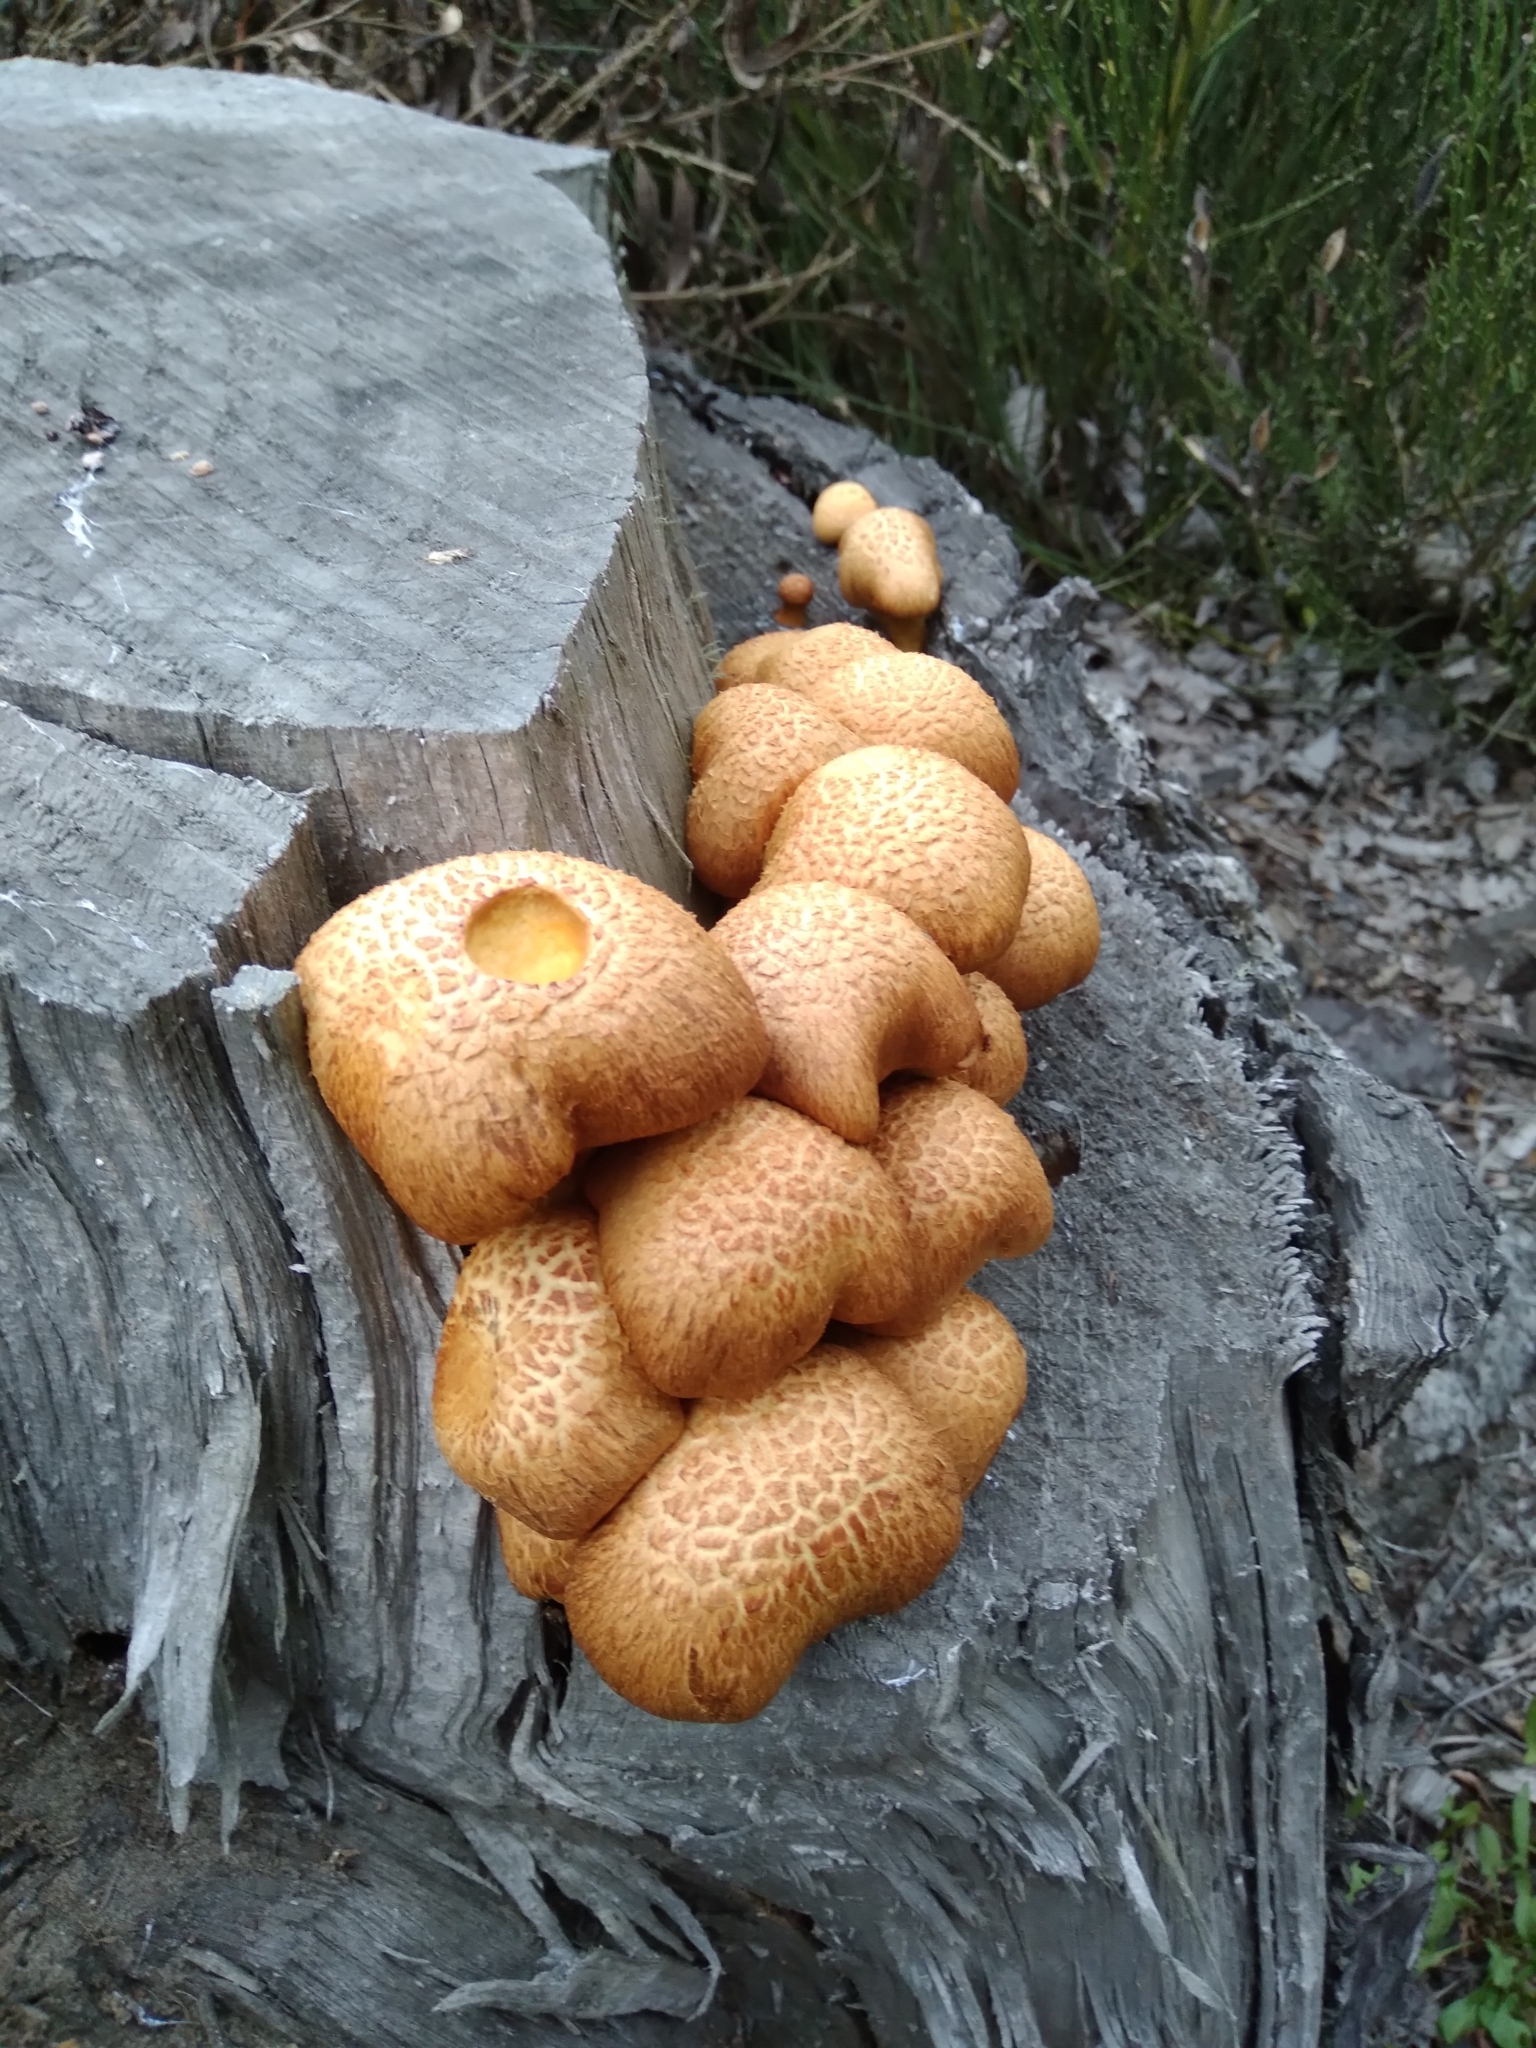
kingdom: Fungi
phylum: Basidiomycota
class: Agaricomycetes
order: Agaricales
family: Hymenogastraceae
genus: Gymnopilus
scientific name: Gymnopilus junonius
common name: Spectacular rustgill
